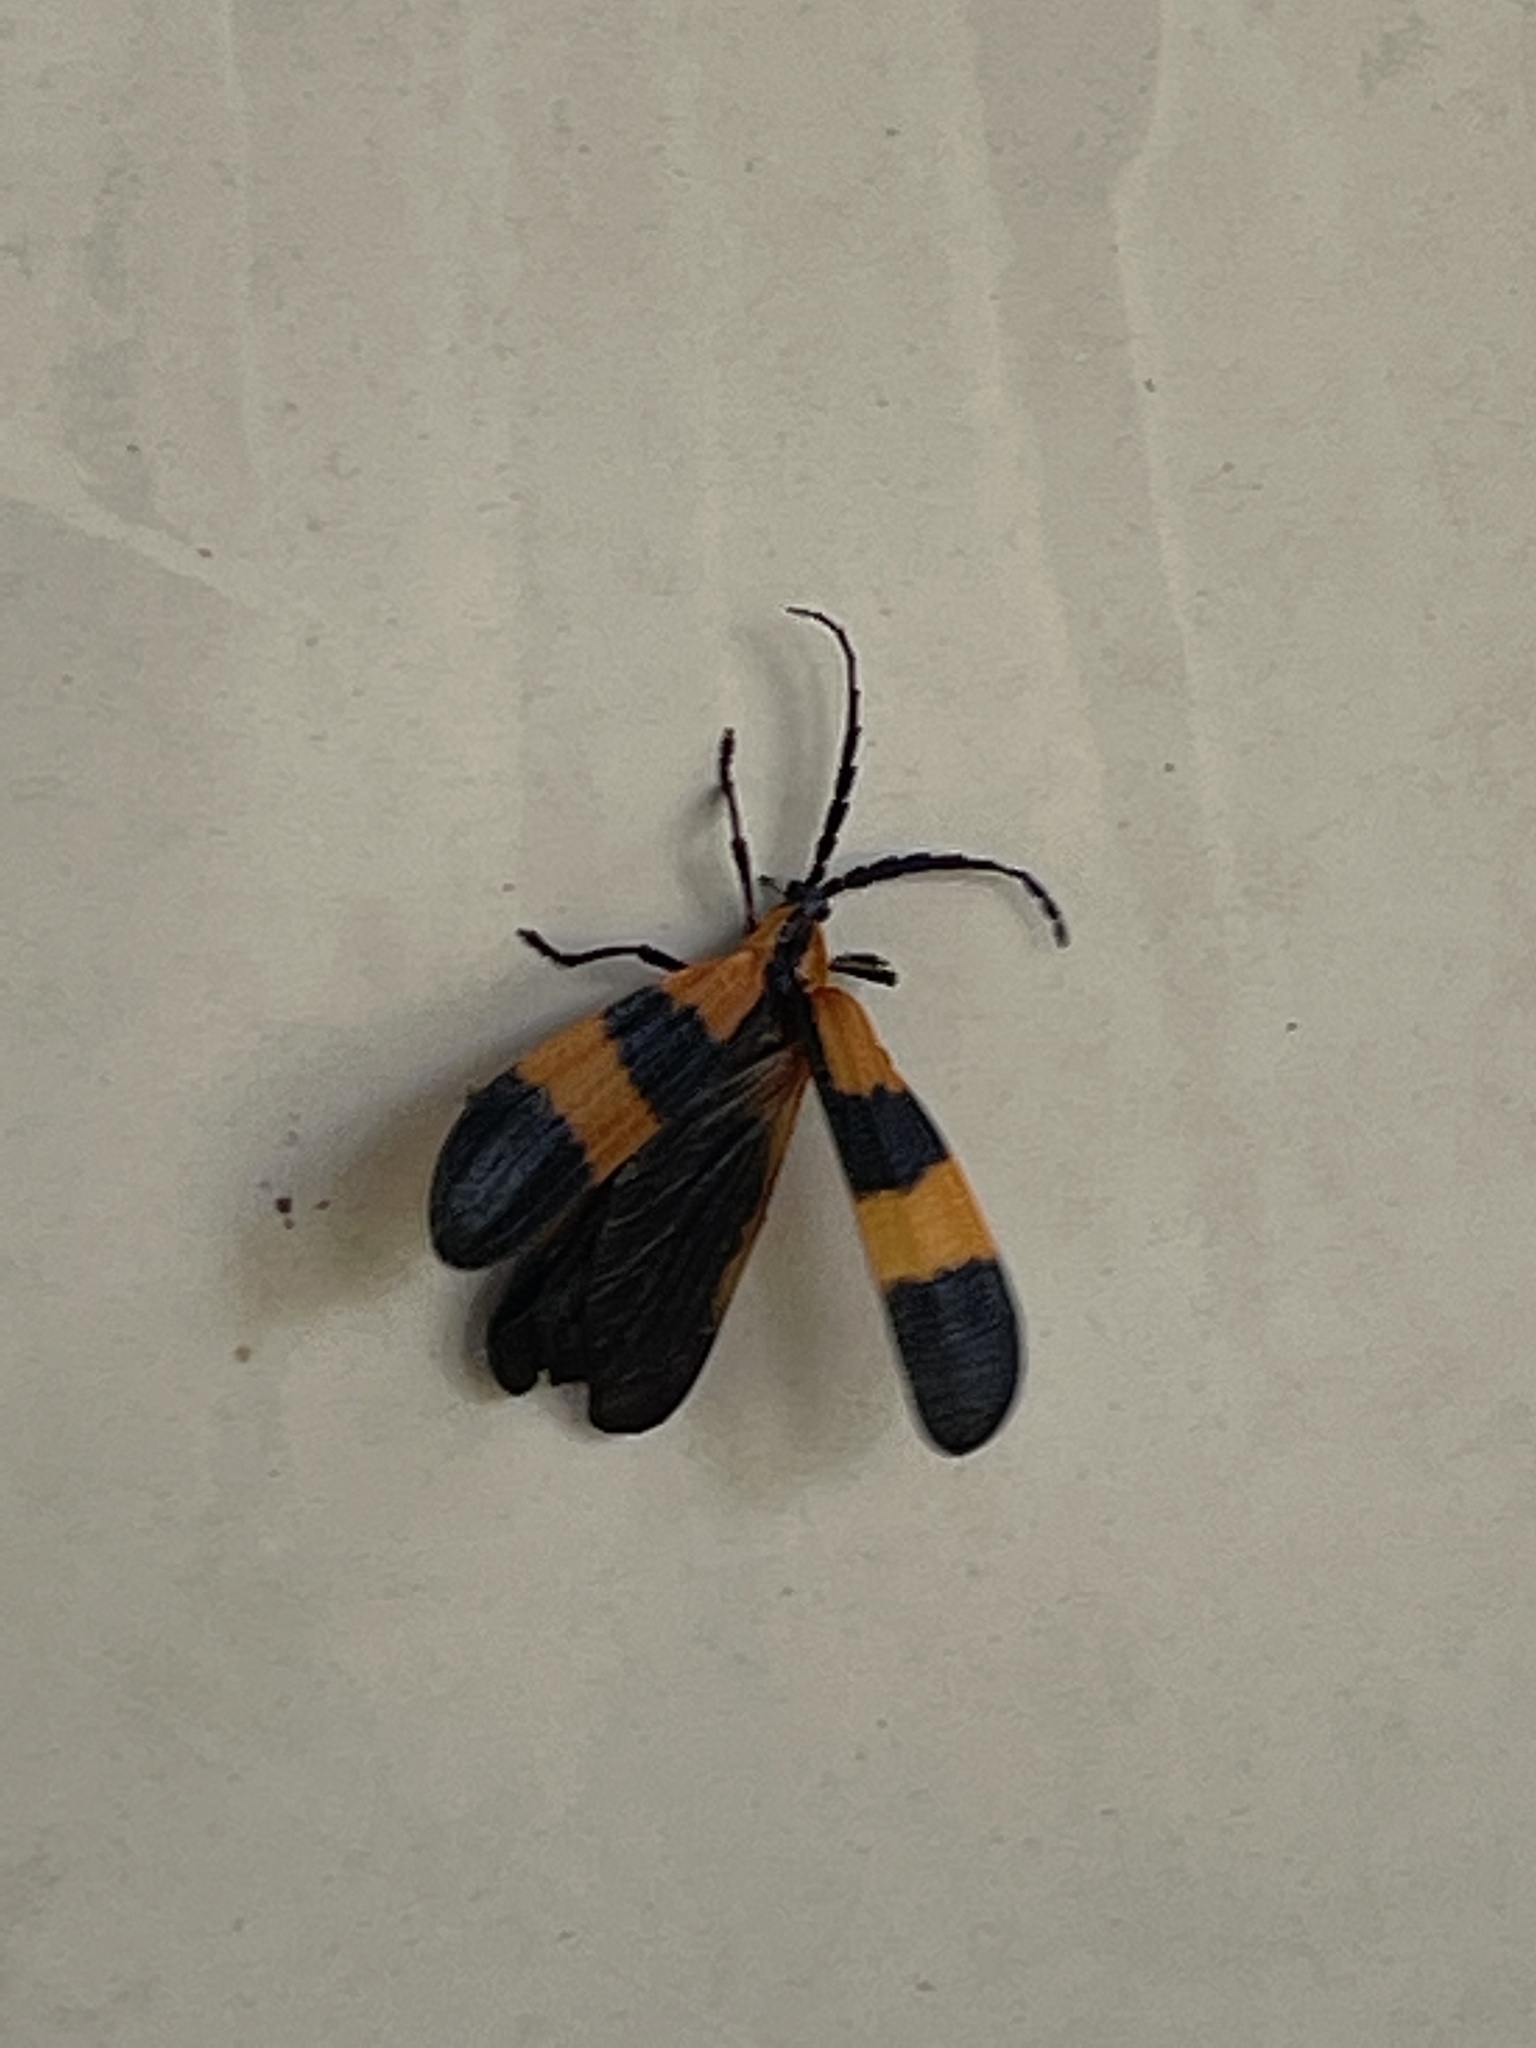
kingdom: Animalia
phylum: Arthropoda
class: Insecta
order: Coleoptera
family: Lycidae
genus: Calopteron
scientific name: Calopteron reticulatum
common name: Banded net-winged beetle
